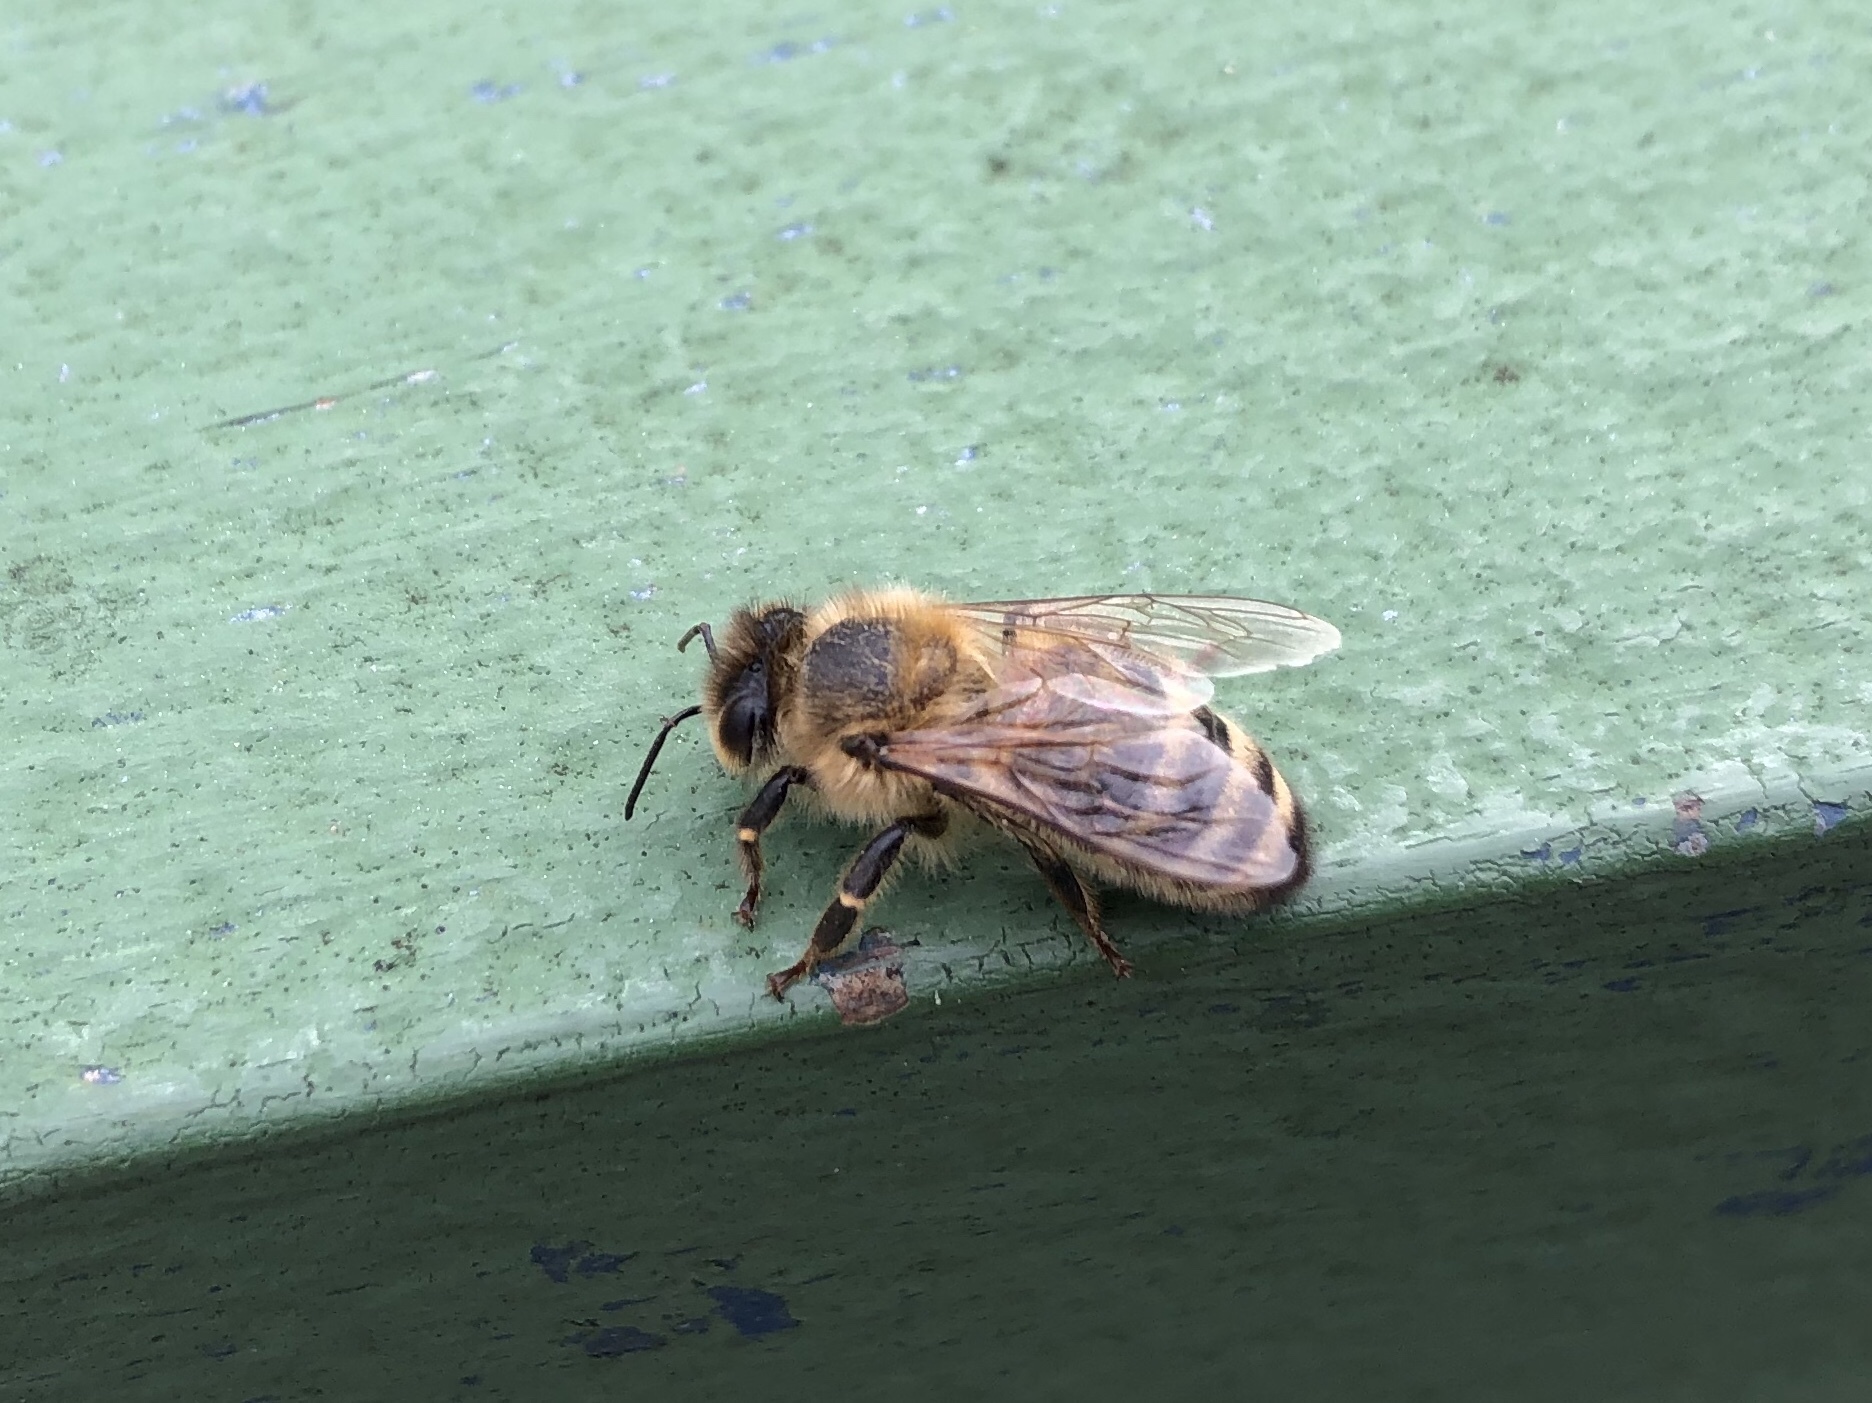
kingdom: Animalia
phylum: Arthropoda
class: Insecta
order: Hymenoptera
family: Apidae
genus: Apis
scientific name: Apis mellifera
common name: Honey bee
